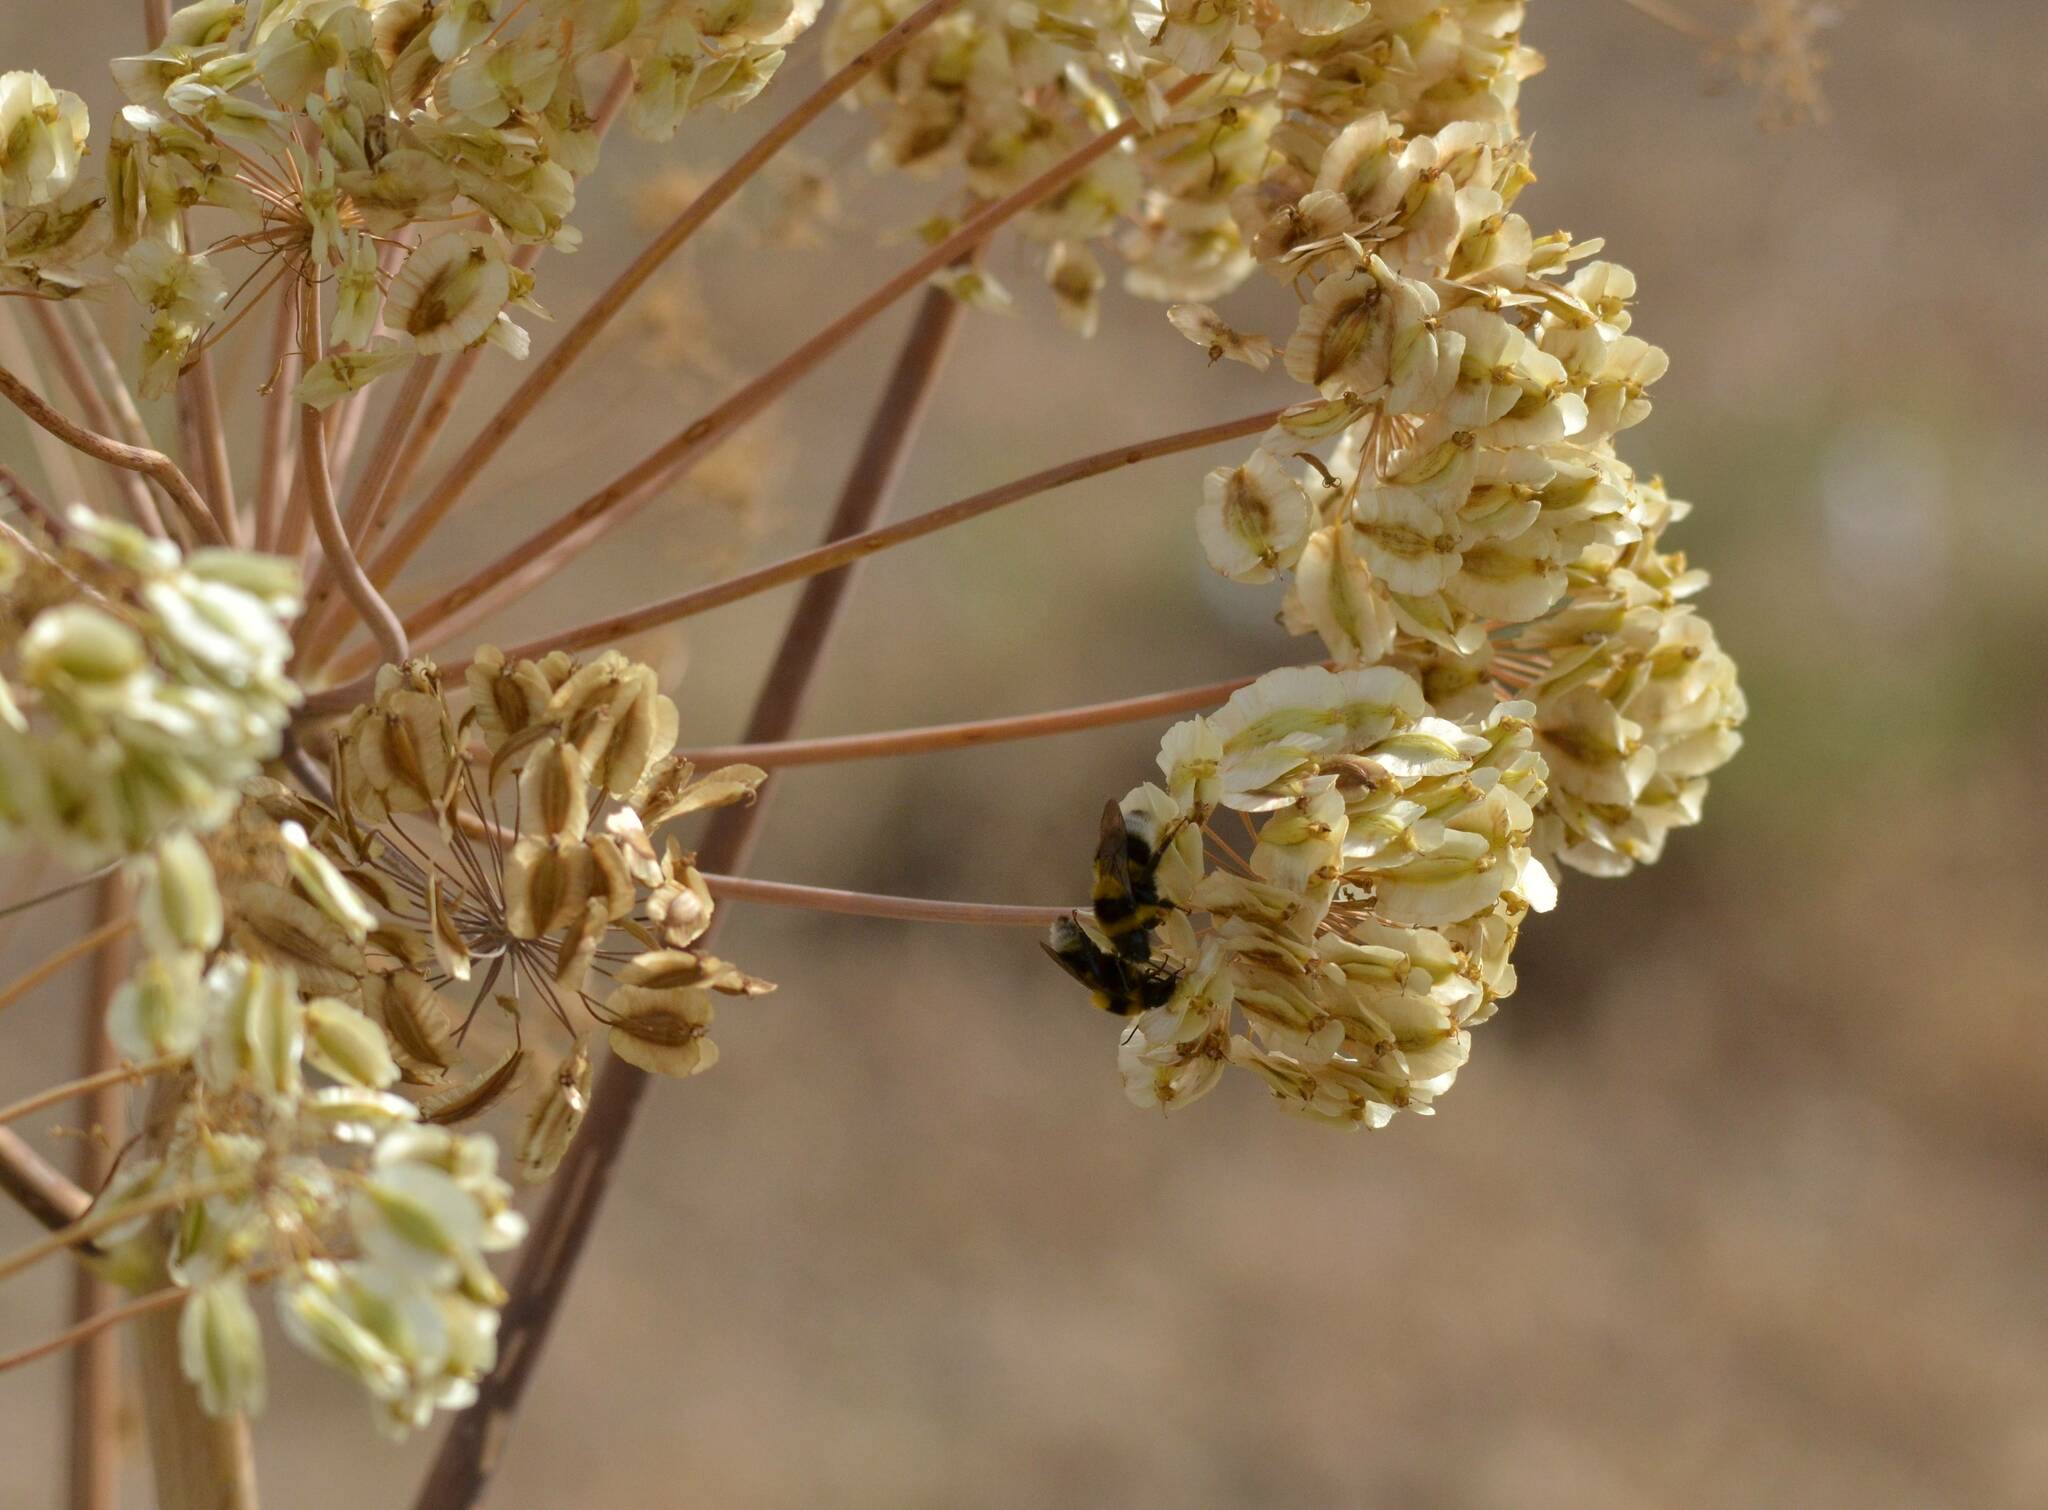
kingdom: Plantae
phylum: Tracheophyta
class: Magnoliopsida
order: Apiales
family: Apiaceae
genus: Thapsia
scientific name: Thapsia garganica
